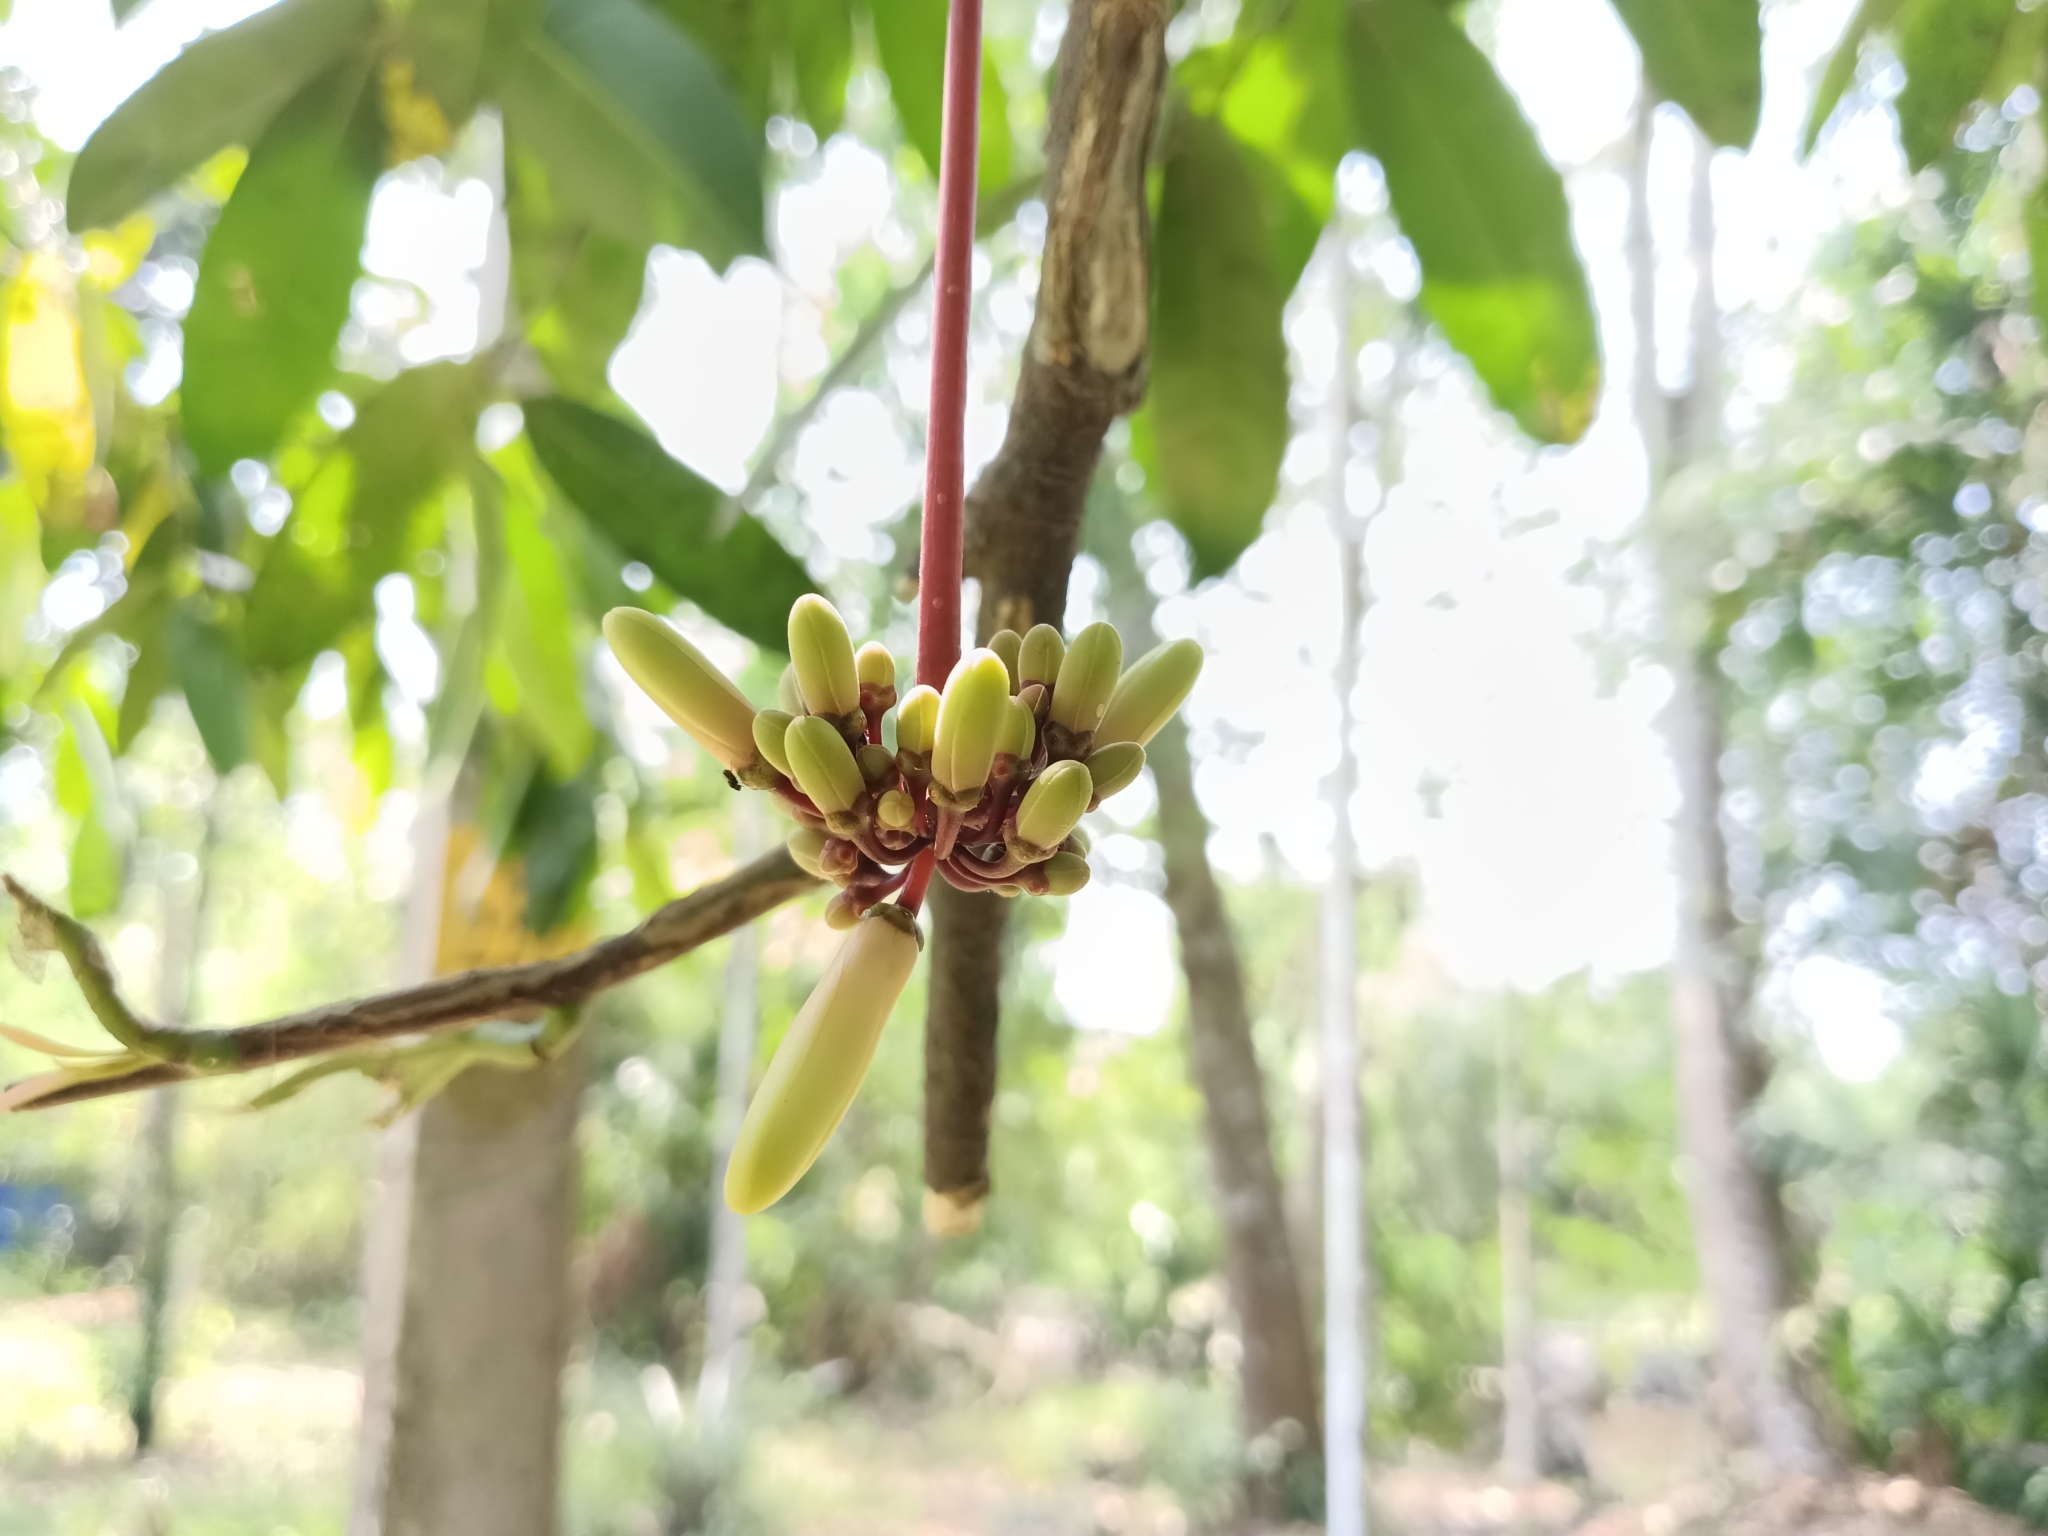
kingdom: Plantae
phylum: Tracheophyta
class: Magnoliopsida
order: Sapindales
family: Simaroubaceae
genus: Samadera
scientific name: Samadera indica
